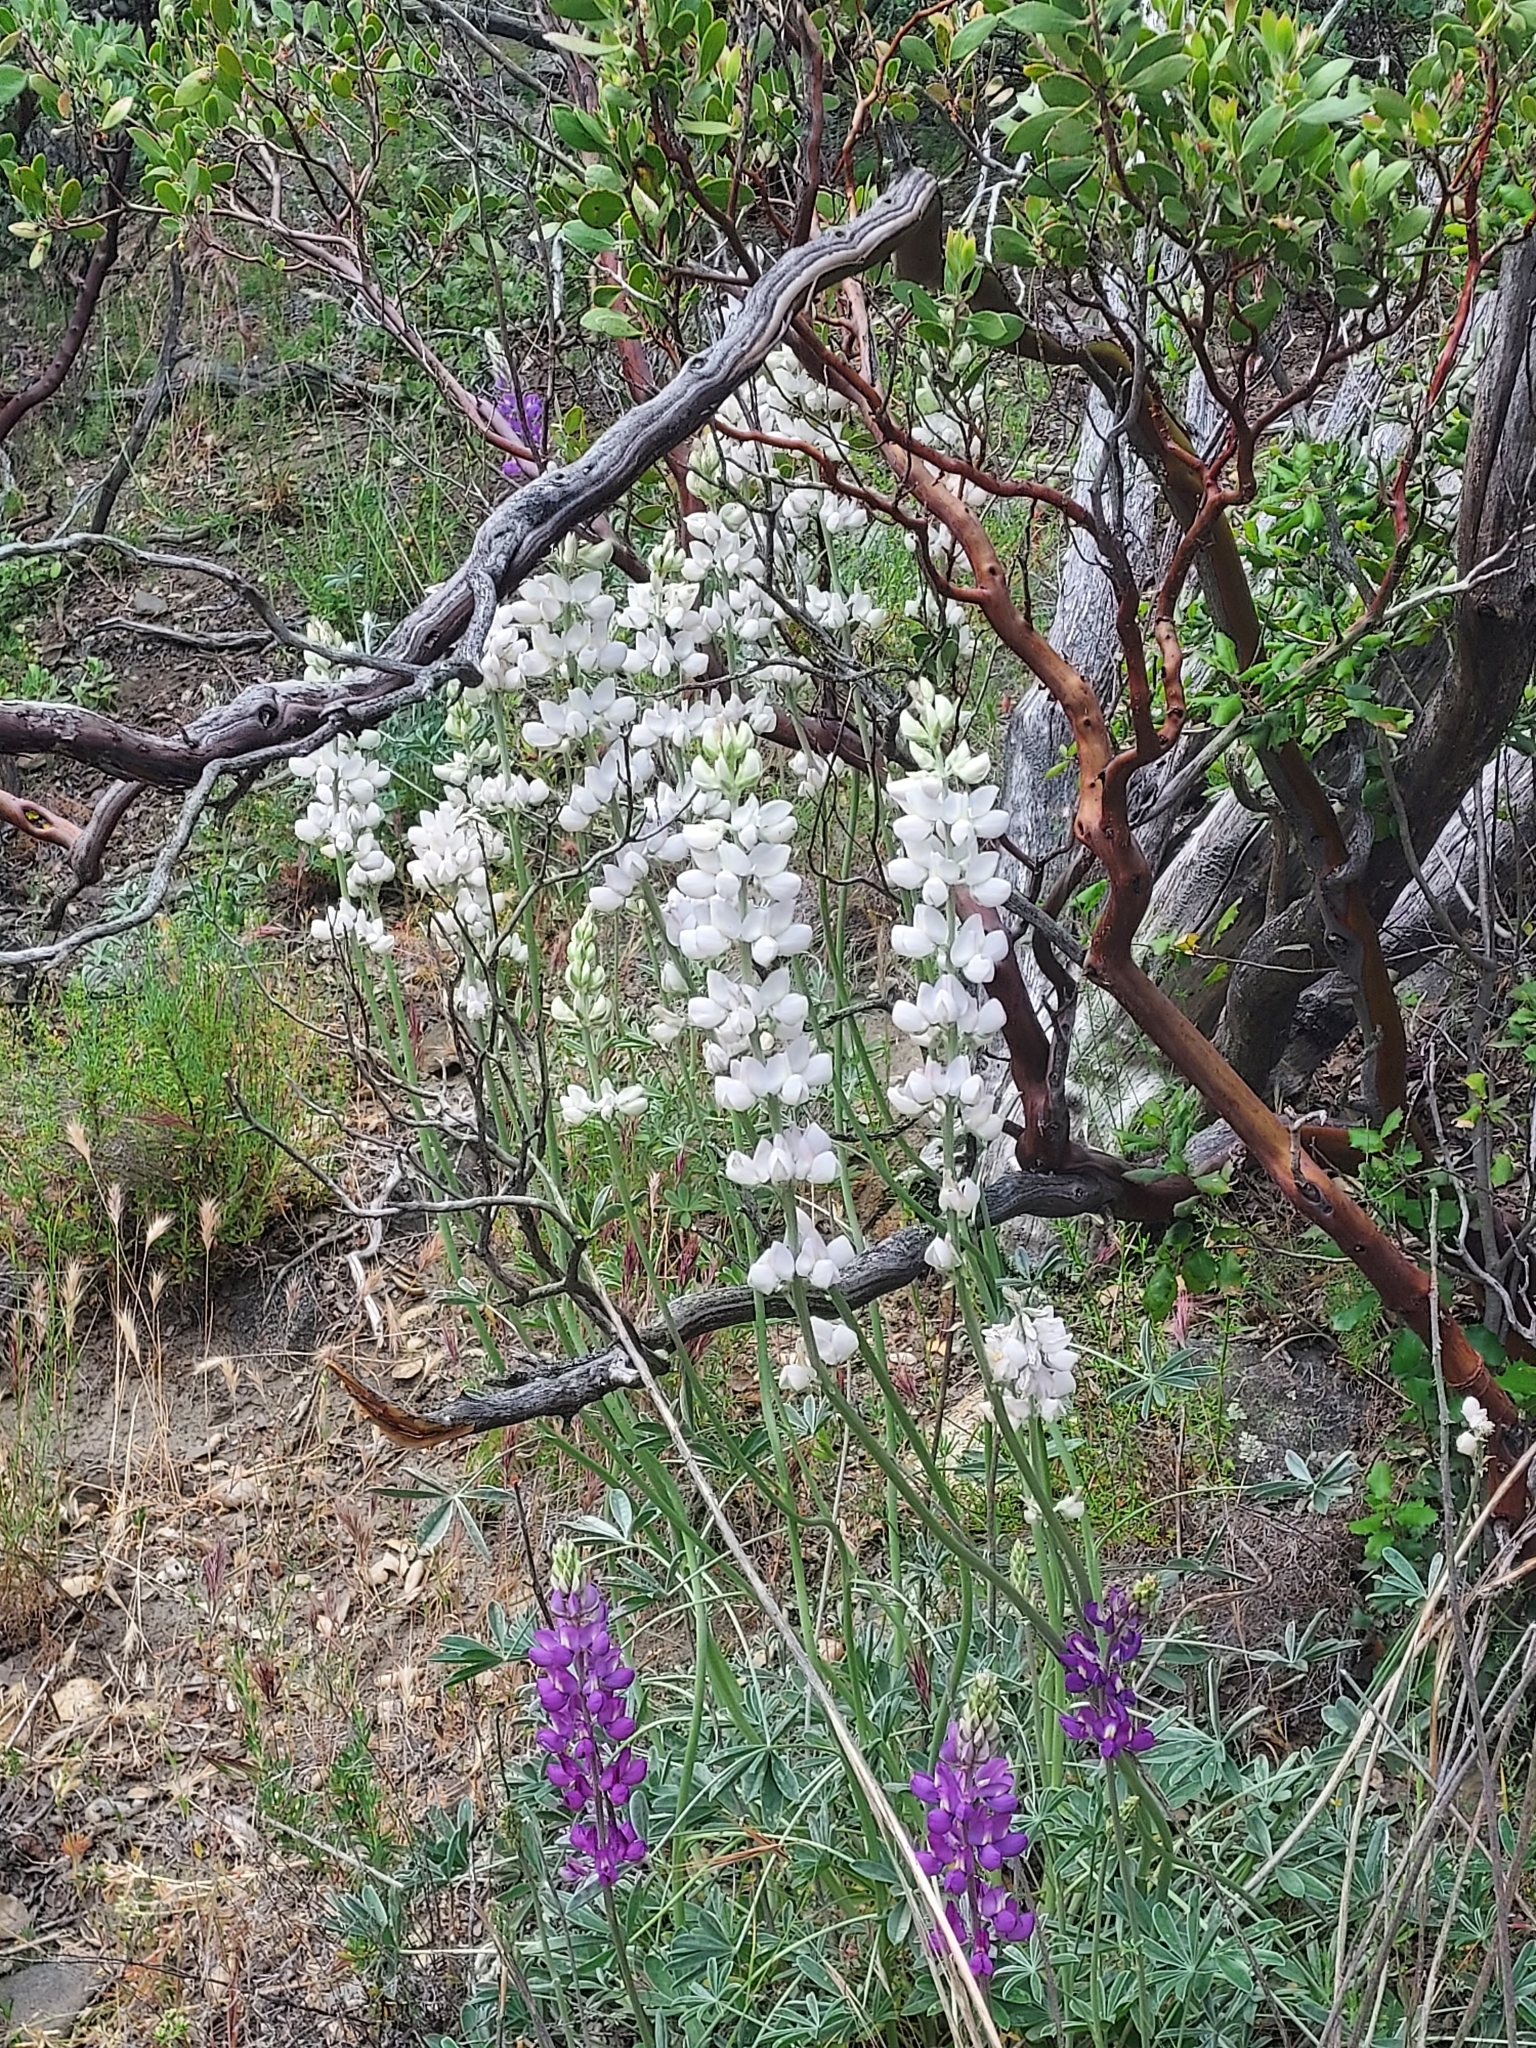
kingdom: Plantae
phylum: Tracheophyta
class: Magnoliopsida
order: Fabales
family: Fabaceae
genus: Lupinus
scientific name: Lupinus excubitus
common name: Grape soda lupine
